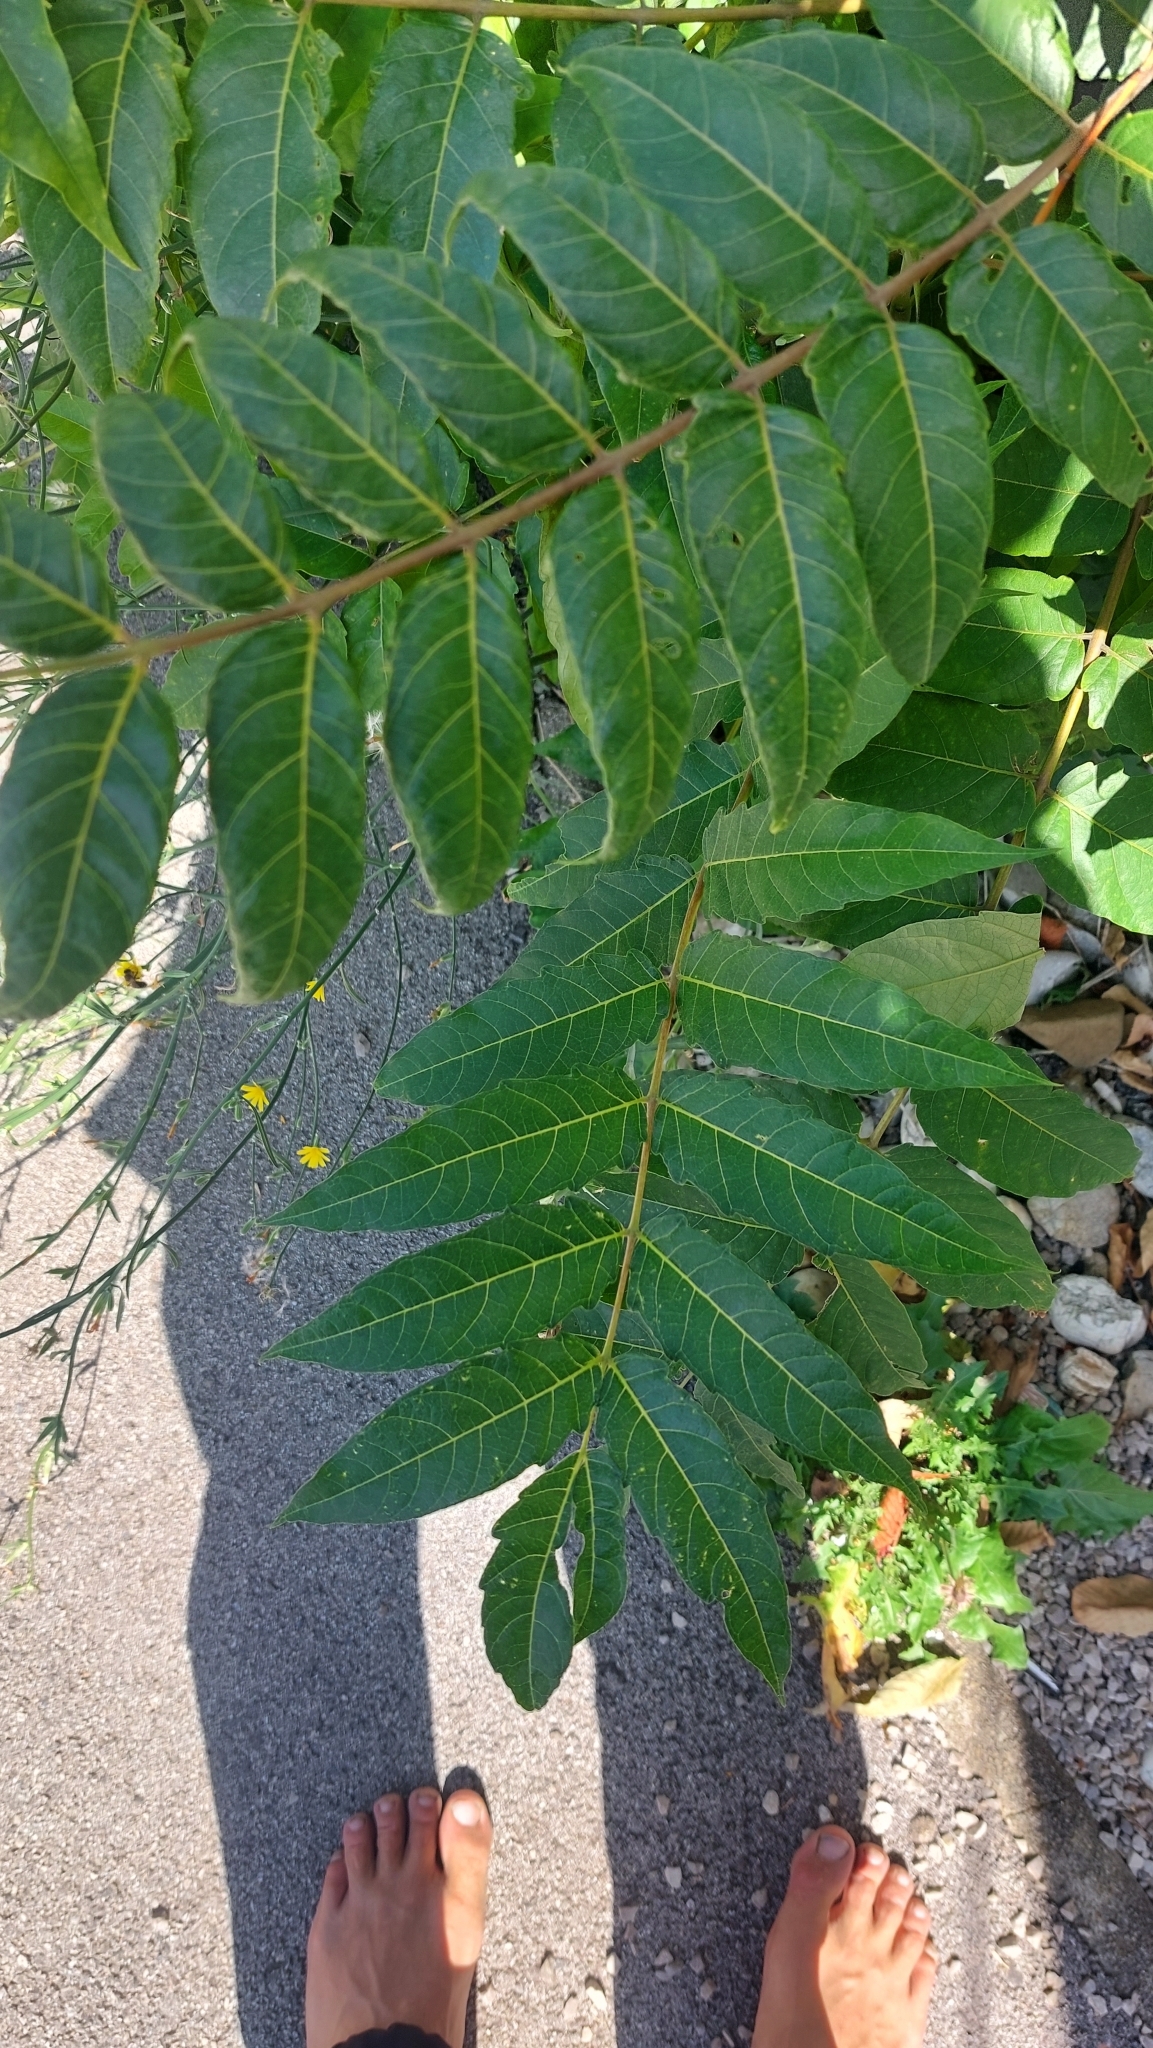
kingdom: Plantae
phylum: Tracheophyta
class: Magnoliopsida
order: Sapindales
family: Simaroubaceae
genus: Ailanthus
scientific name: Ailanthus altissima
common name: Tree-of-heaven
